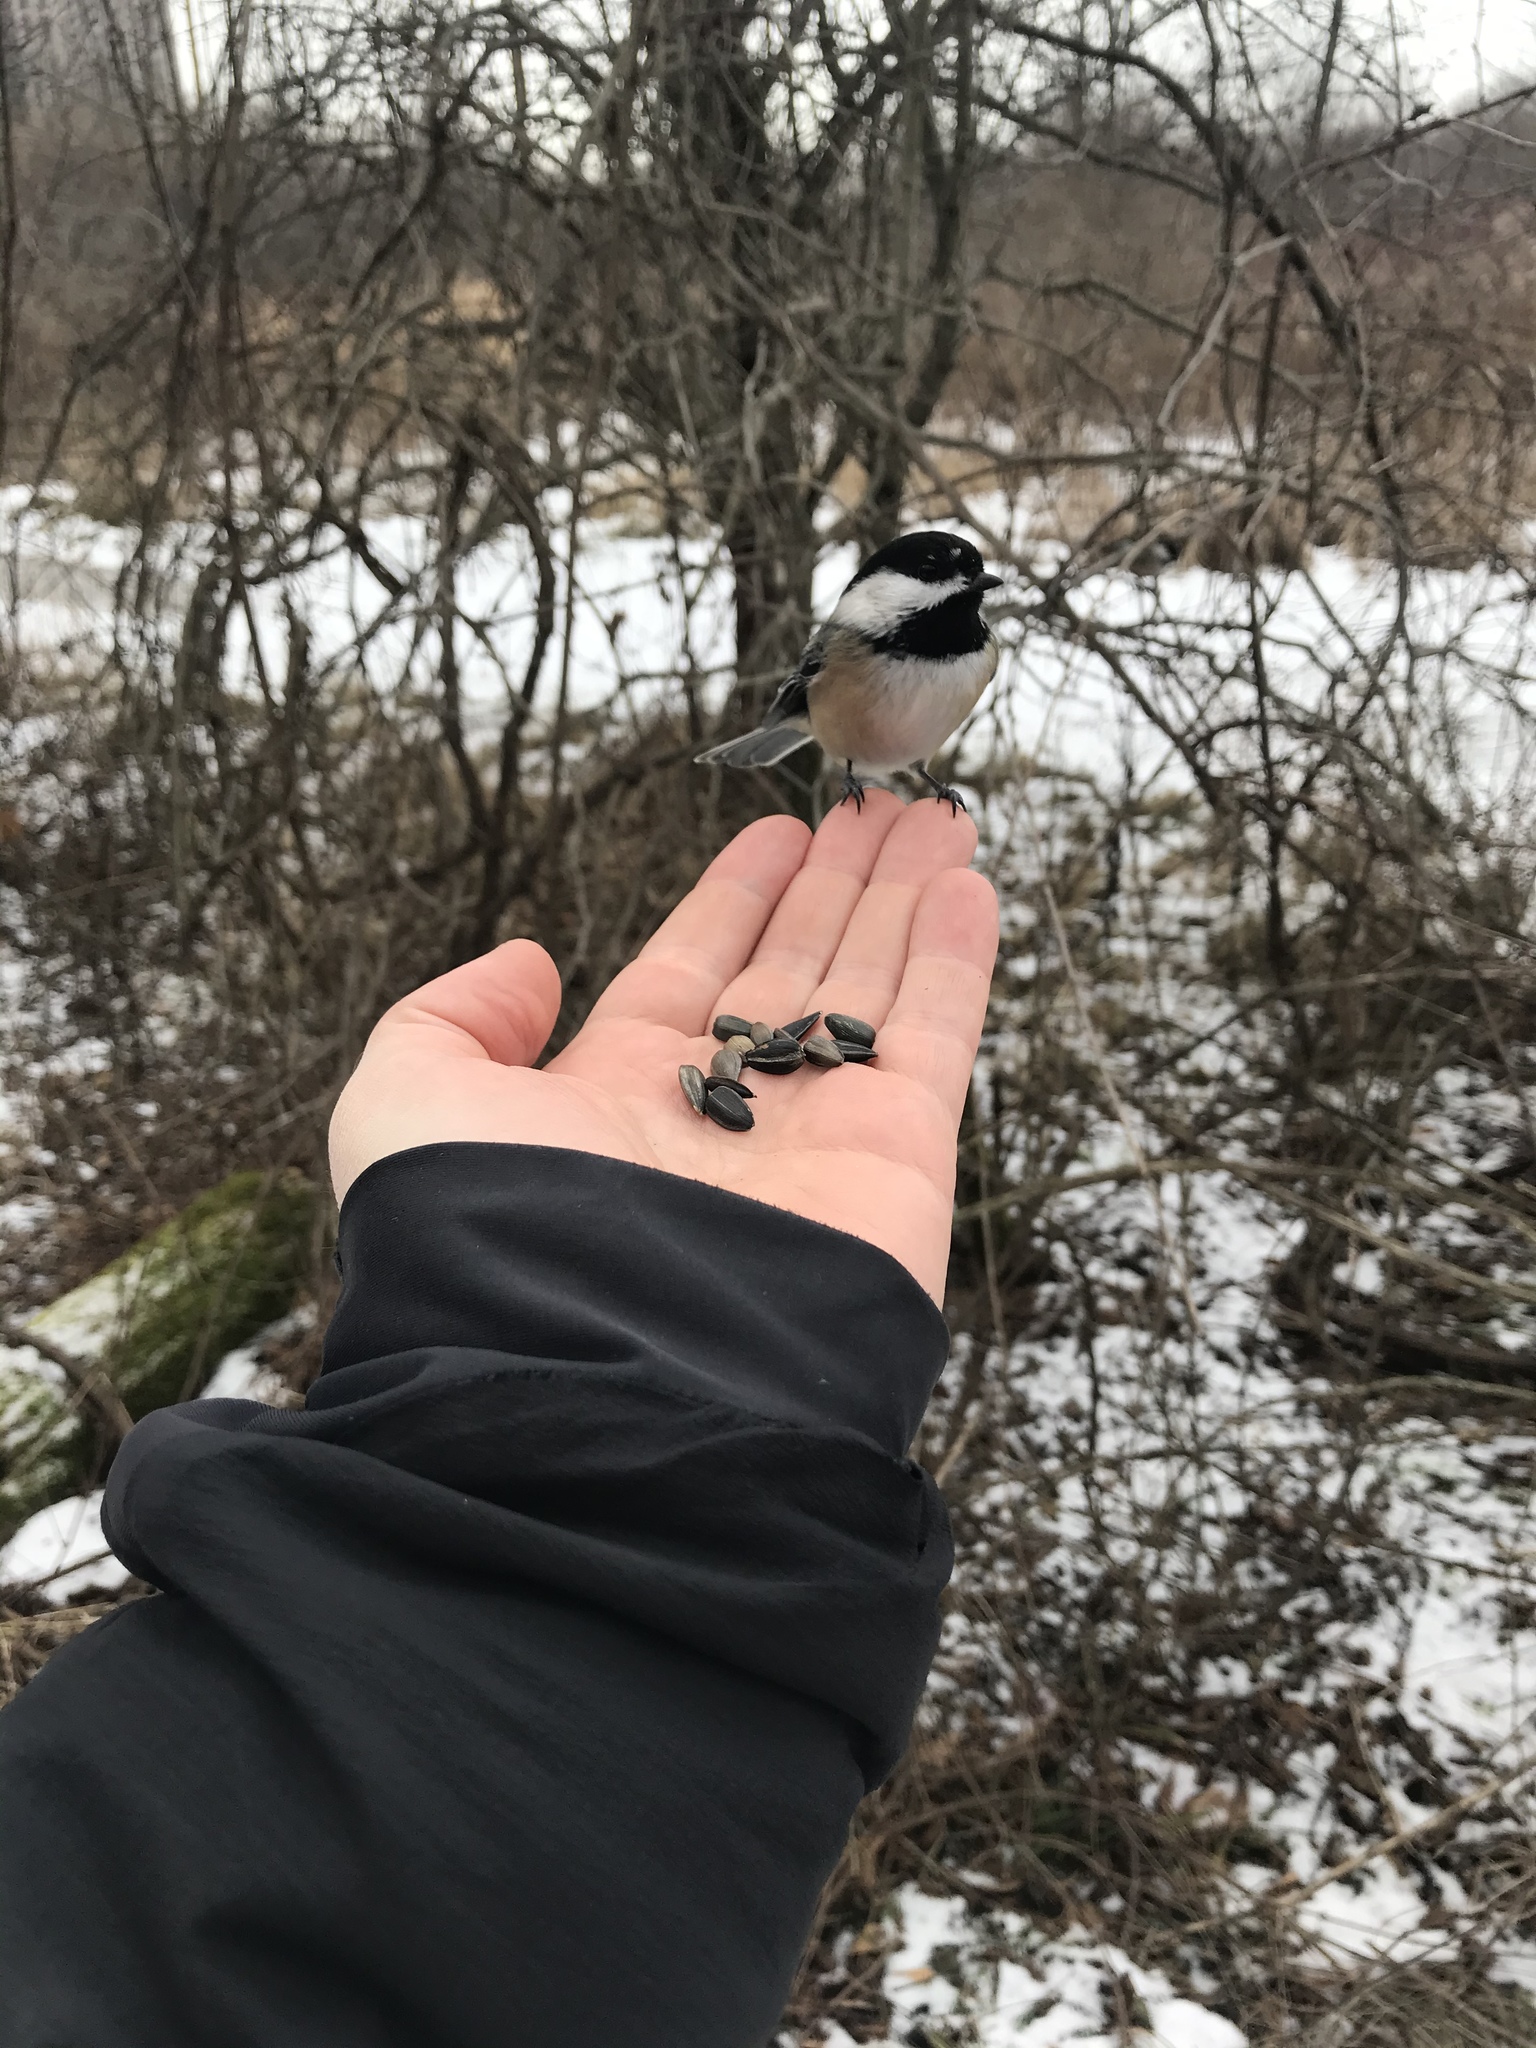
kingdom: Animalia
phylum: Chordata
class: Aves
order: Passeriformes
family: Paridae
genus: Poecile
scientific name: Poecile atricapillus
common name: Black-capped chickadee
